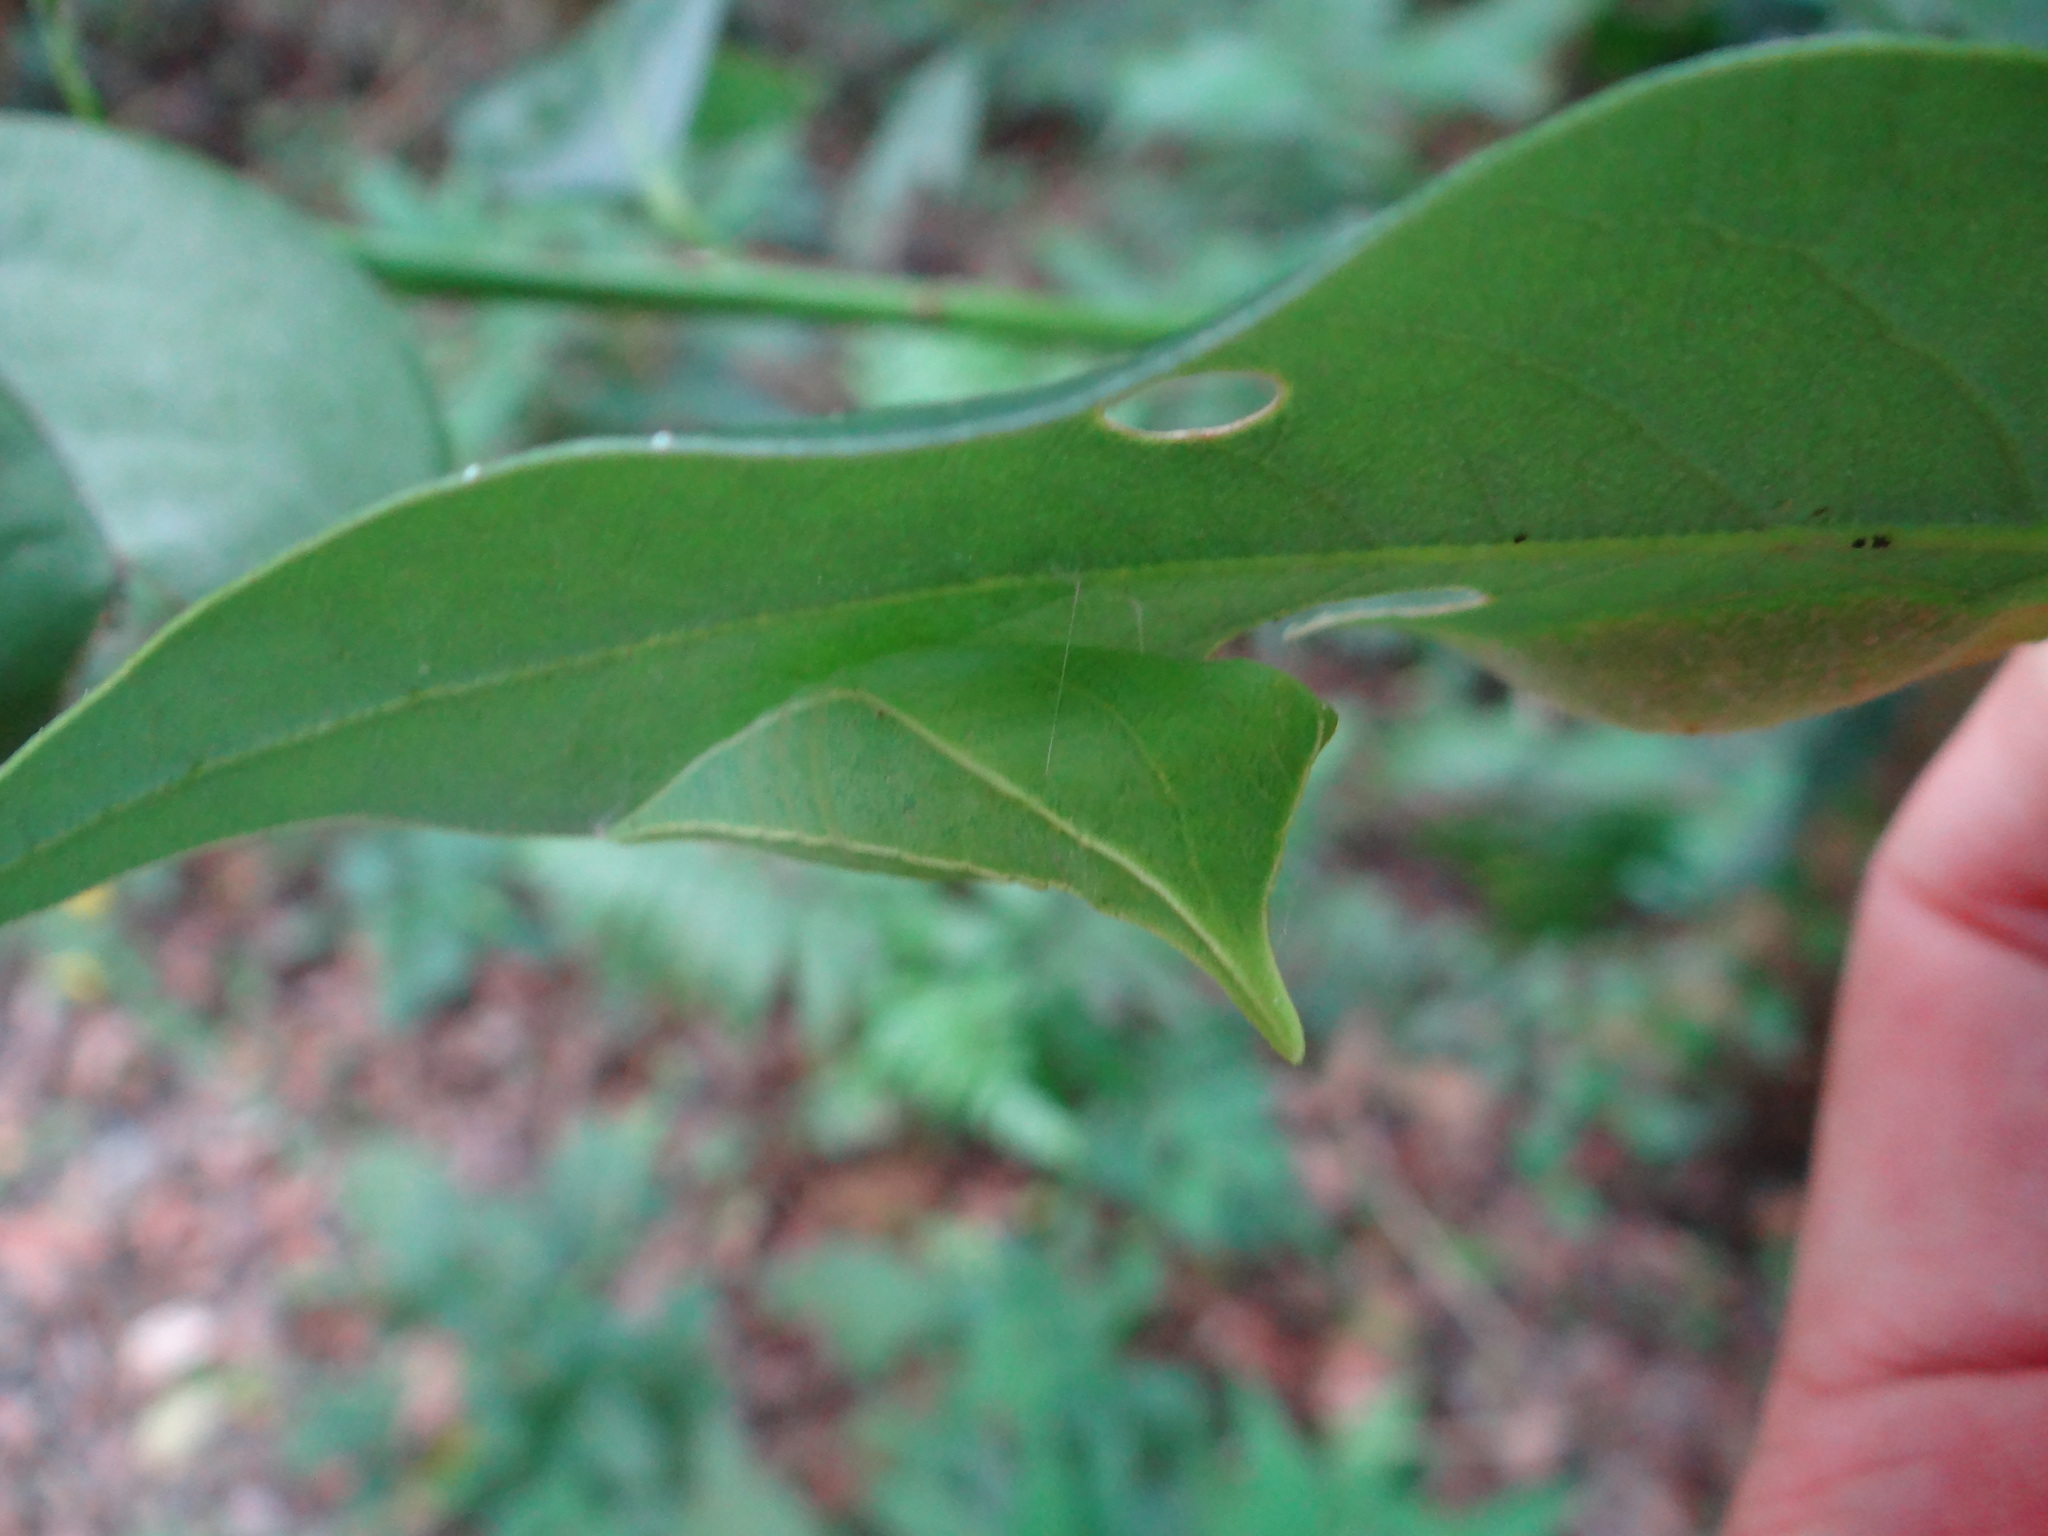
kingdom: Fungi
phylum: Ascomycota
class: Sordariomycetes
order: Microascales
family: Microascaceae
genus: Graphium
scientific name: Graphium sarpedon
